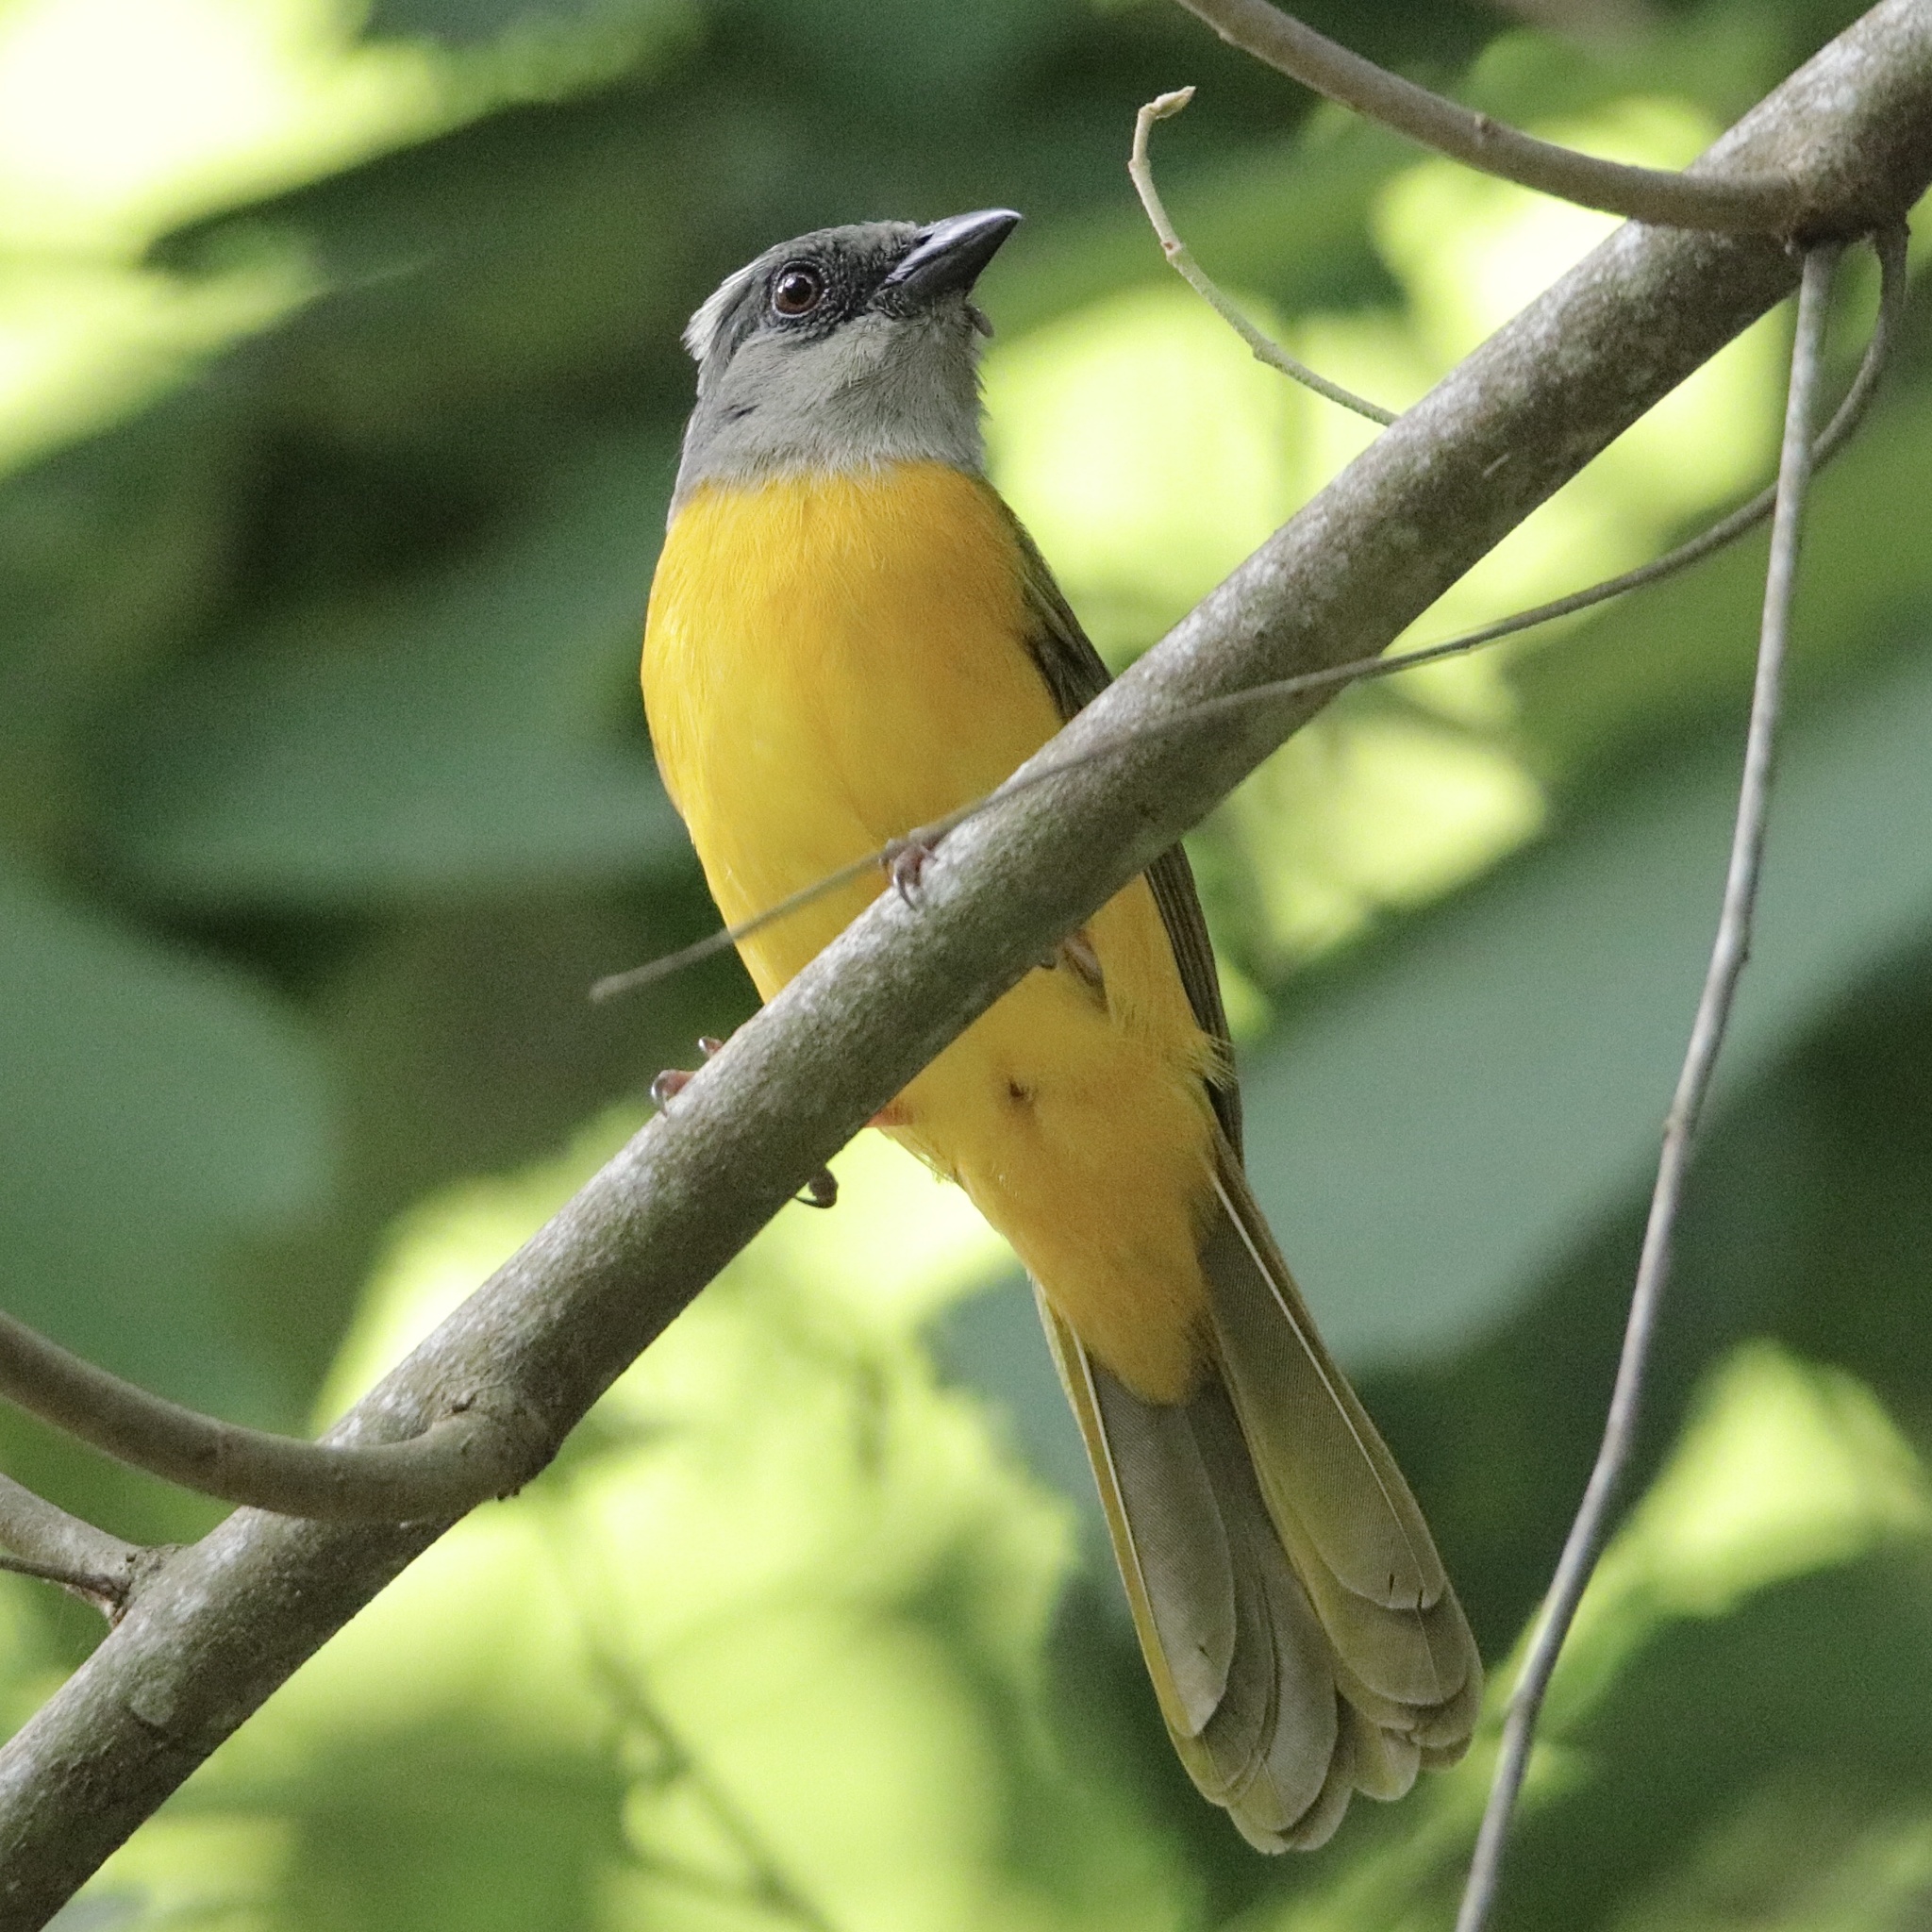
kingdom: Animalia
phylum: Chordata
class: Aves
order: Passeriformes
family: Thraupidae
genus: Eucometis
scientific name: Eucometis penicillata
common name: Grey-headed tanager
